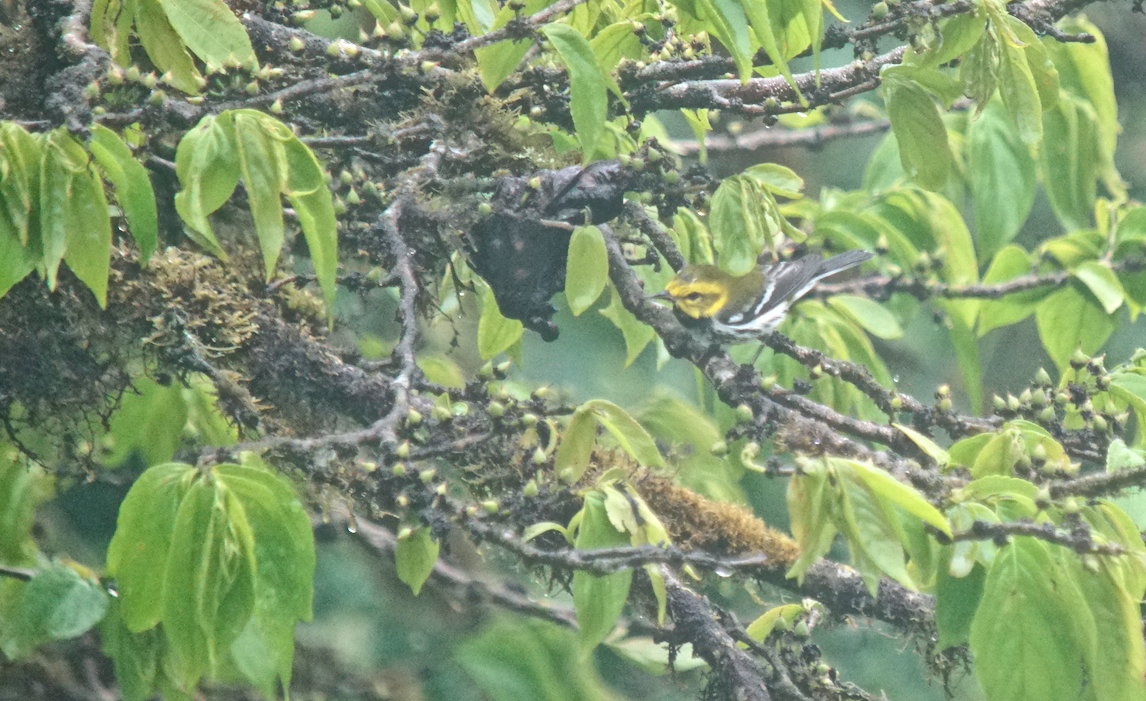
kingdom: Animalia
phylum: Chordata
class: Aves
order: Passeriformes
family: Parulidae
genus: Setophaga
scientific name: Setophaga virens
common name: Black-throated green warbler
